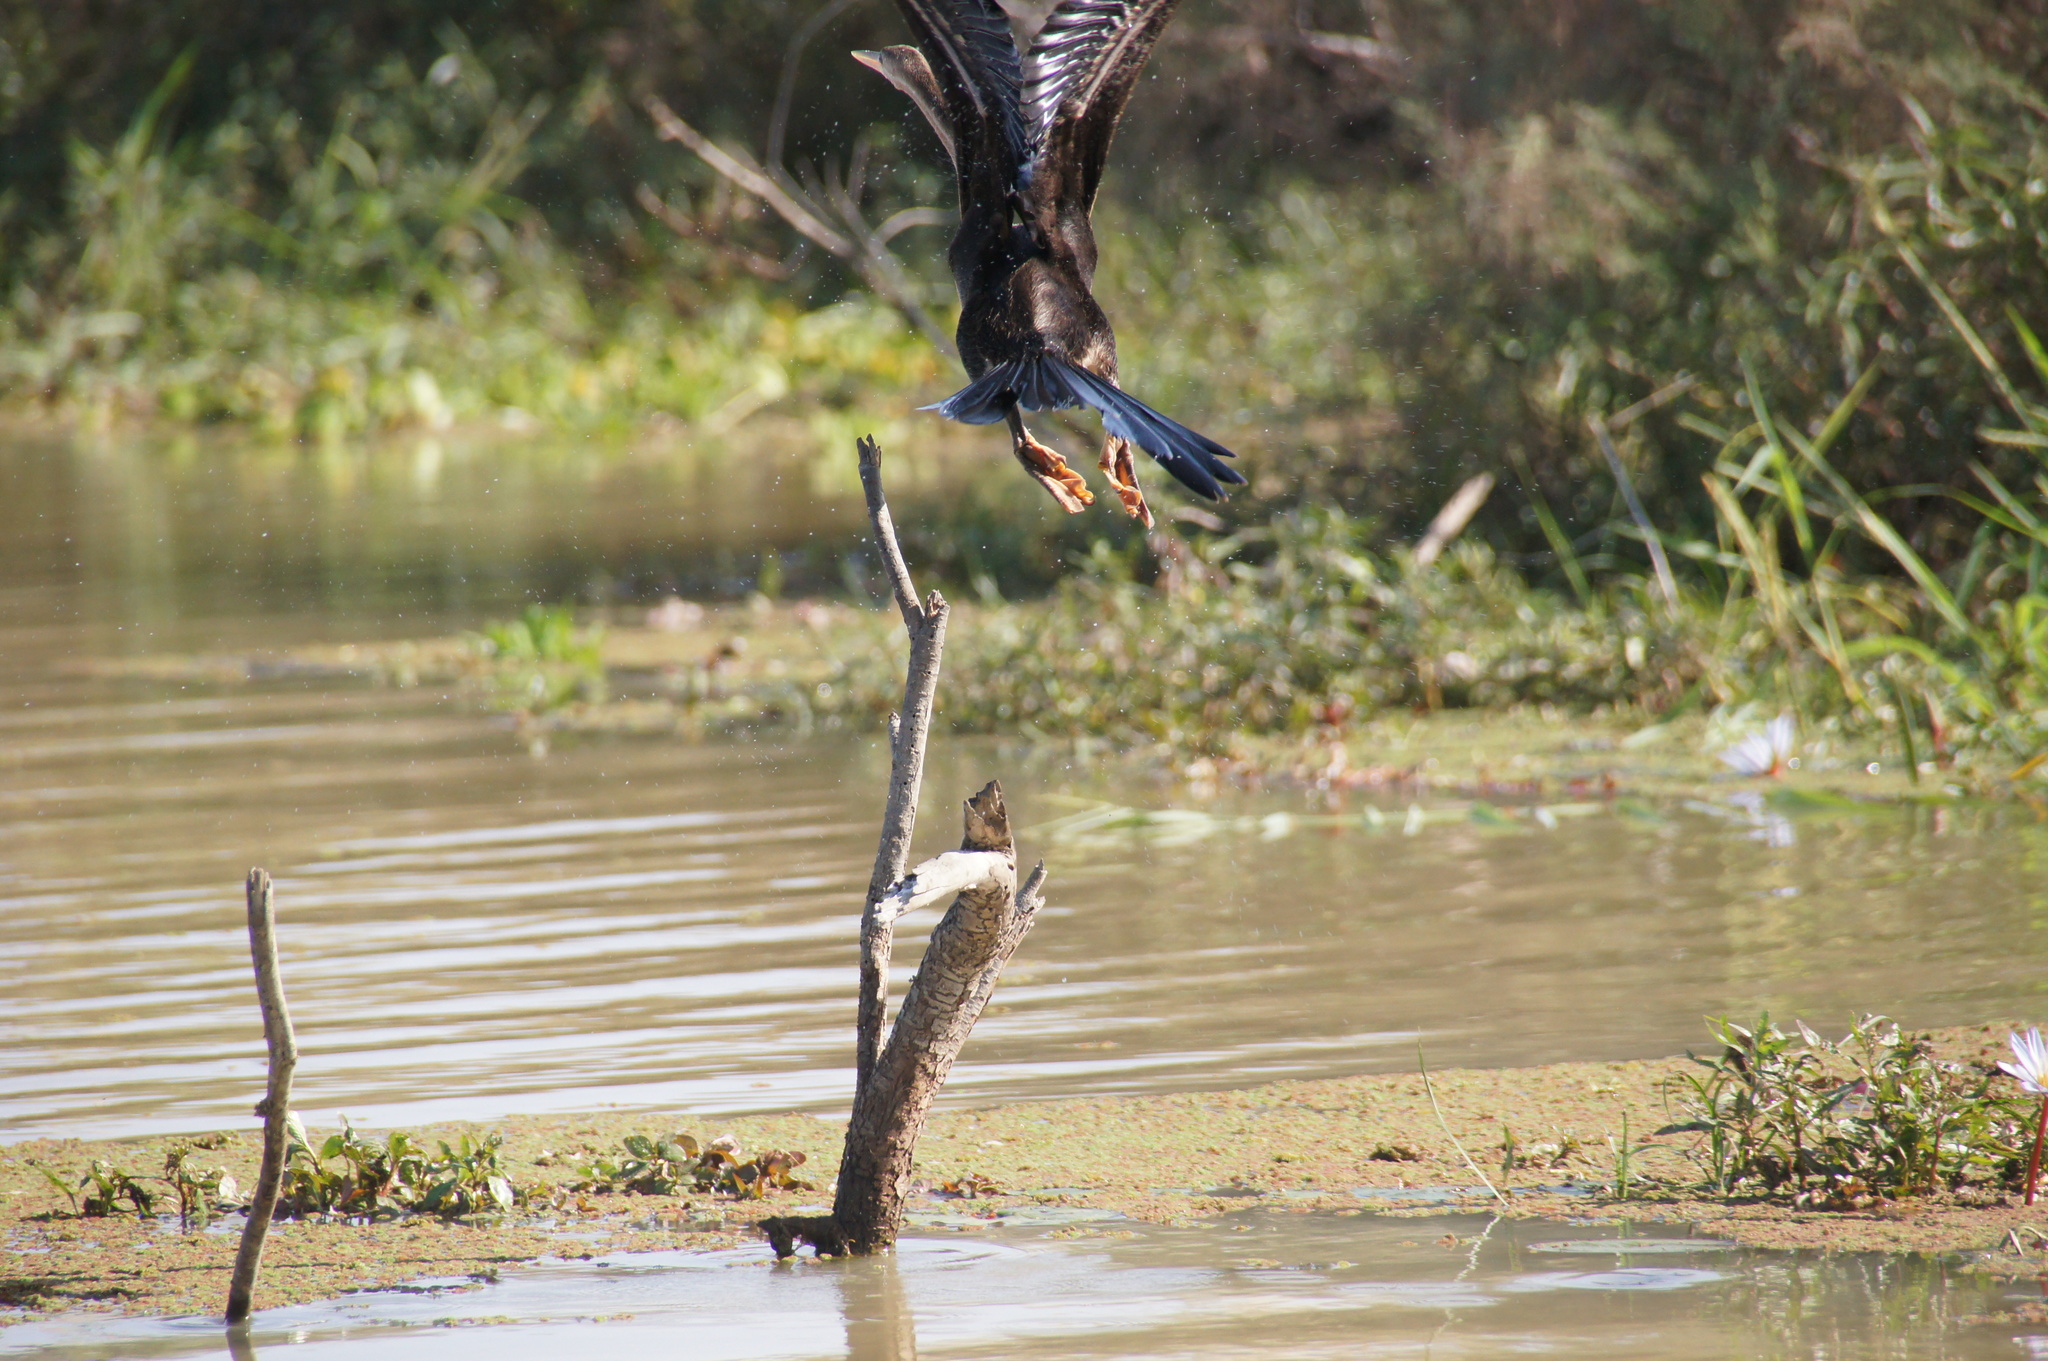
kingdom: Animalia
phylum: Chordata
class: Aves
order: Suliformes
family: Anhingidae
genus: Anhinga
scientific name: Anhinga rufa
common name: African darter
